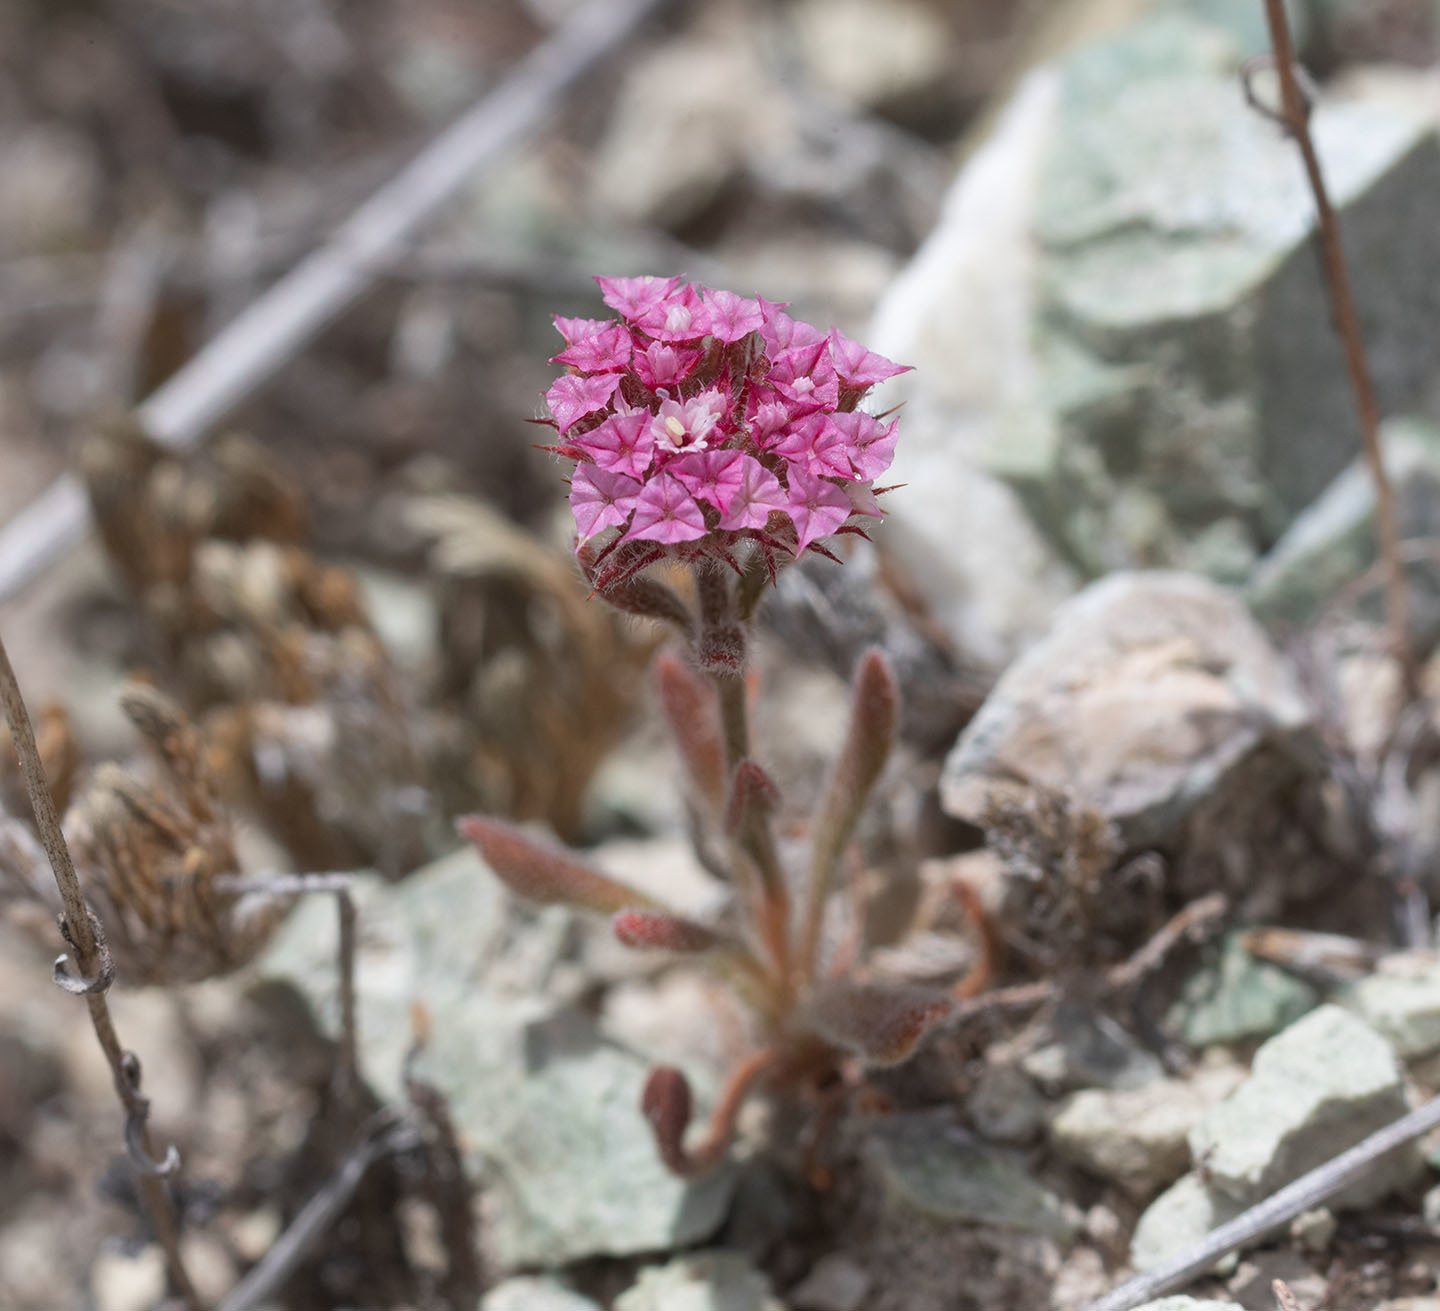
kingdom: Plantae
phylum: Tracheophyta
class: Magnoliopsida
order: Caryophyllales
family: Polygonaceae
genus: Chorizanthe
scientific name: Chorizanthe douglasii
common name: Douglas's spineflower
